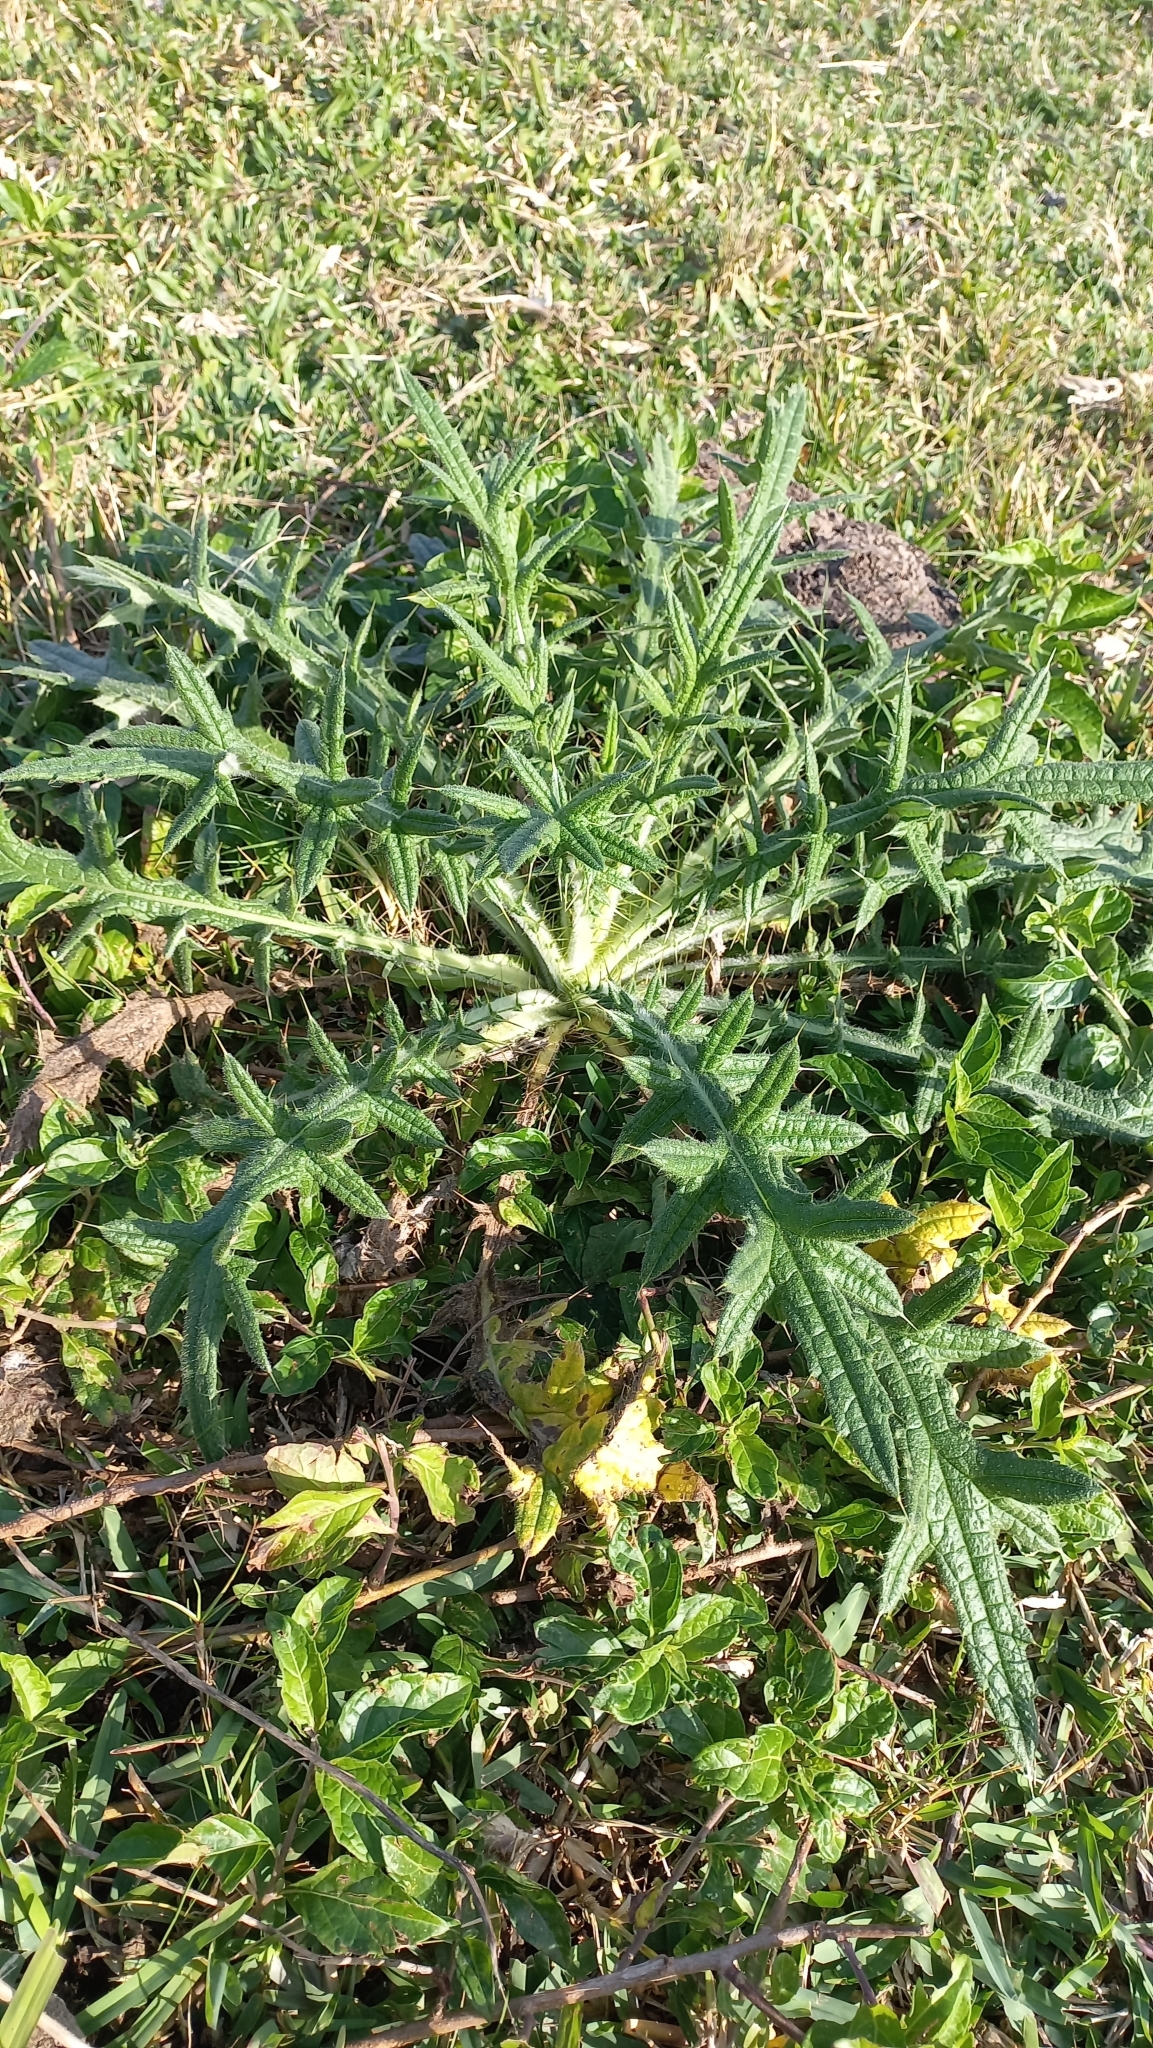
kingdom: Plantae
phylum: Tracheophyta
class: Magnoliopsida
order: Asterales
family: Asteraceae
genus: Cirsium
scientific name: Cirsium vulgare
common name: Bull thistle
